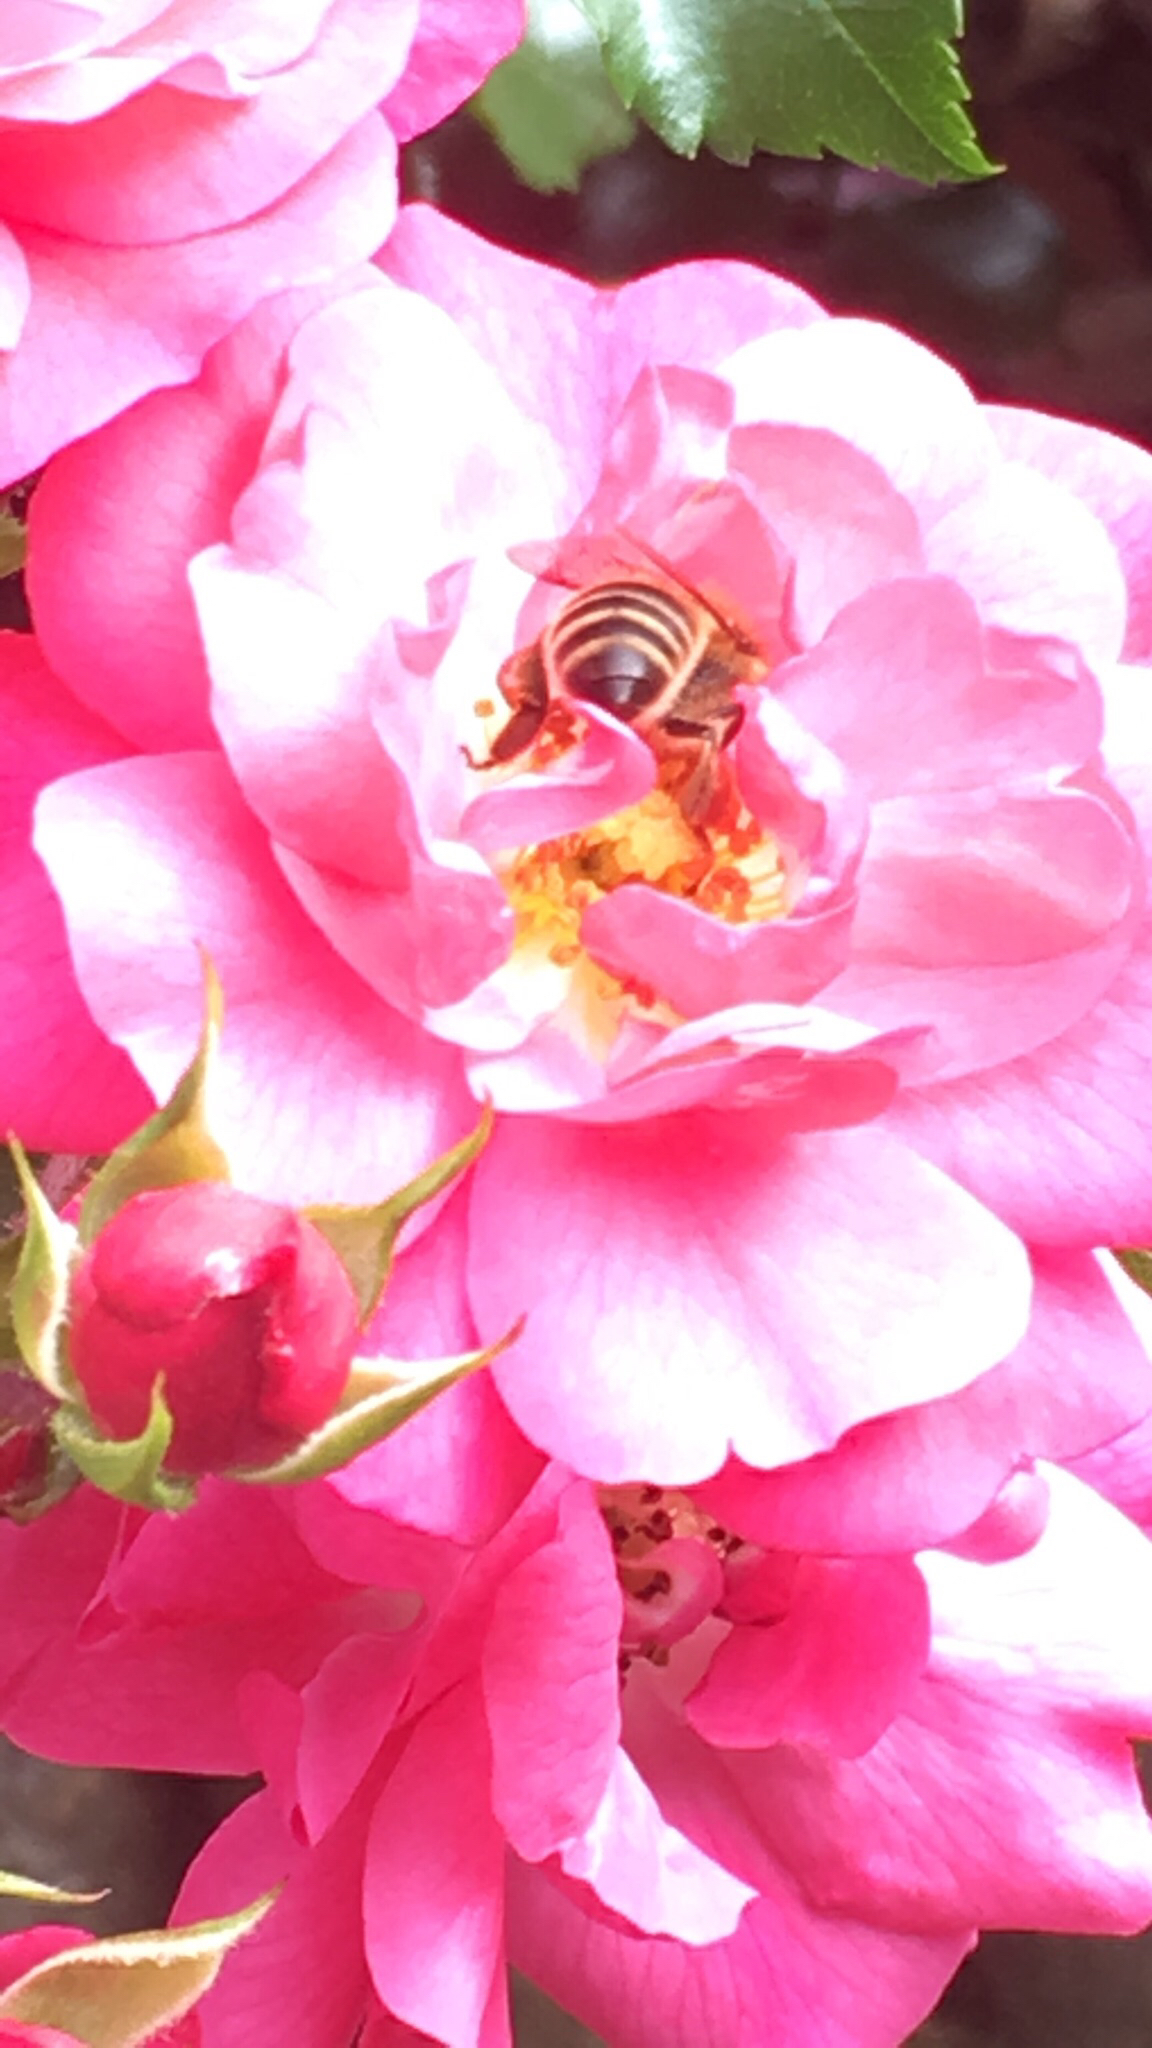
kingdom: Animalia
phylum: Arthropoda
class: Insecta
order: Hymenoptera
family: Apidae
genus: Apis
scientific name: Apis mellifera
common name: Honey bee
